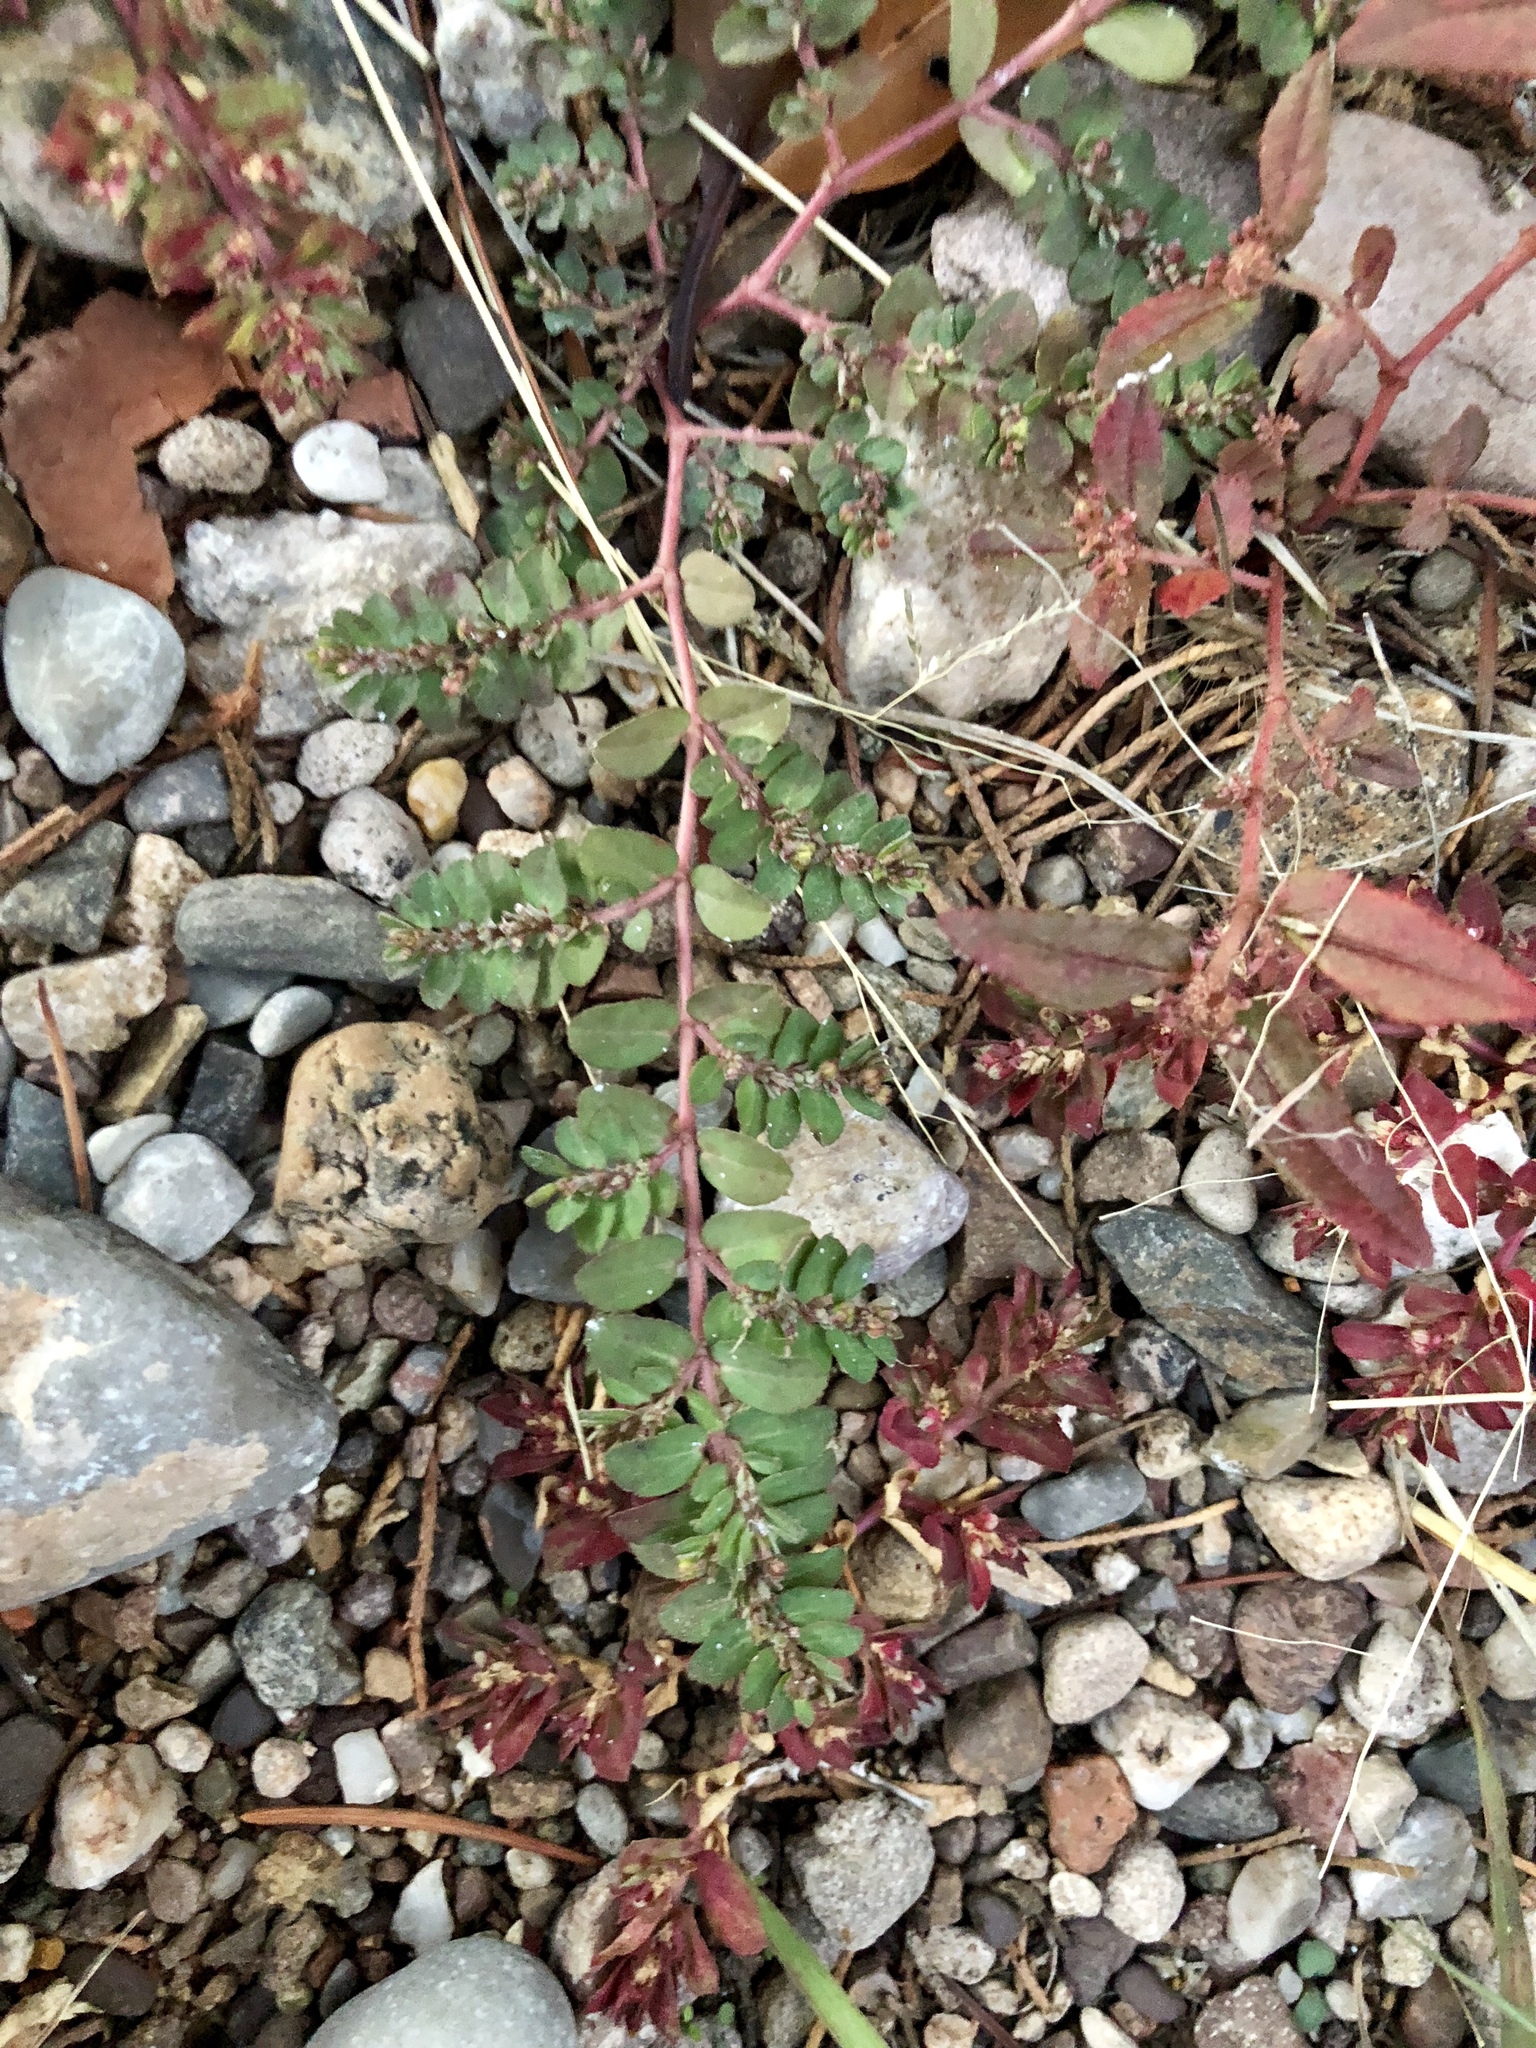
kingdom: Plantae
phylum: Tracheophyta
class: Magnoliopsida
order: Malpighiales
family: Euphorbiaceae
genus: Euphorbia
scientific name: Euphorbia prostrata
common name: Prostrate sandmat
